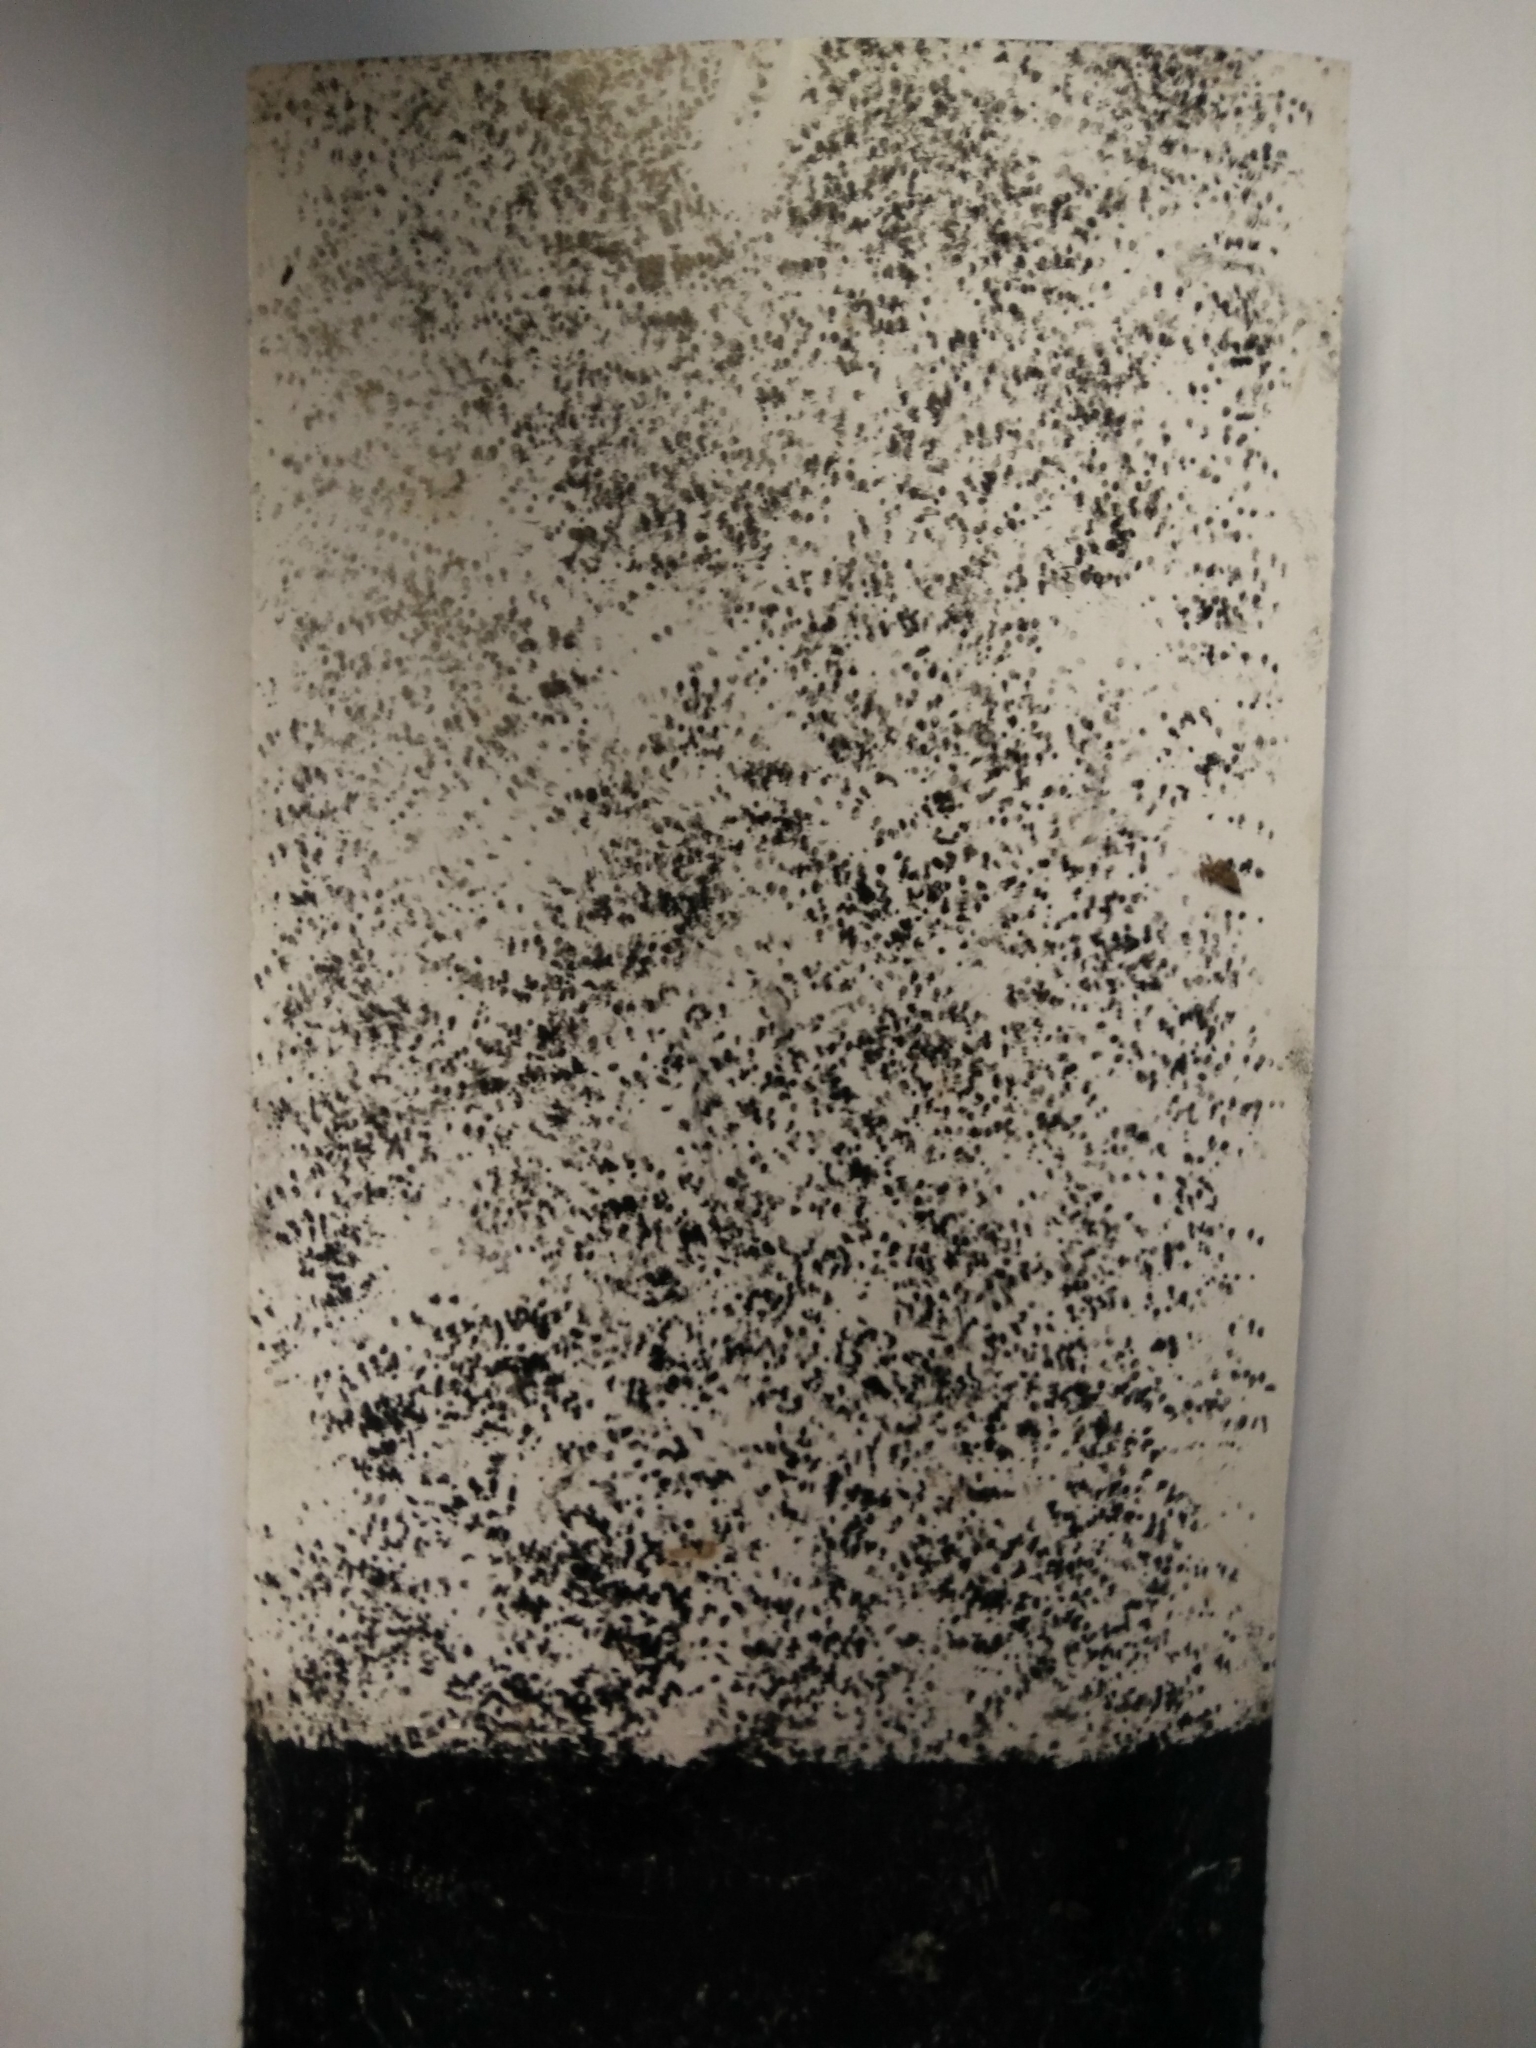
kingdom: Animalia
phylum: Chordata
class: Mammalia
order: Rodentia
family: Muridae
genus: Mus
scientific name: Mus musculus
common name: House mouse
